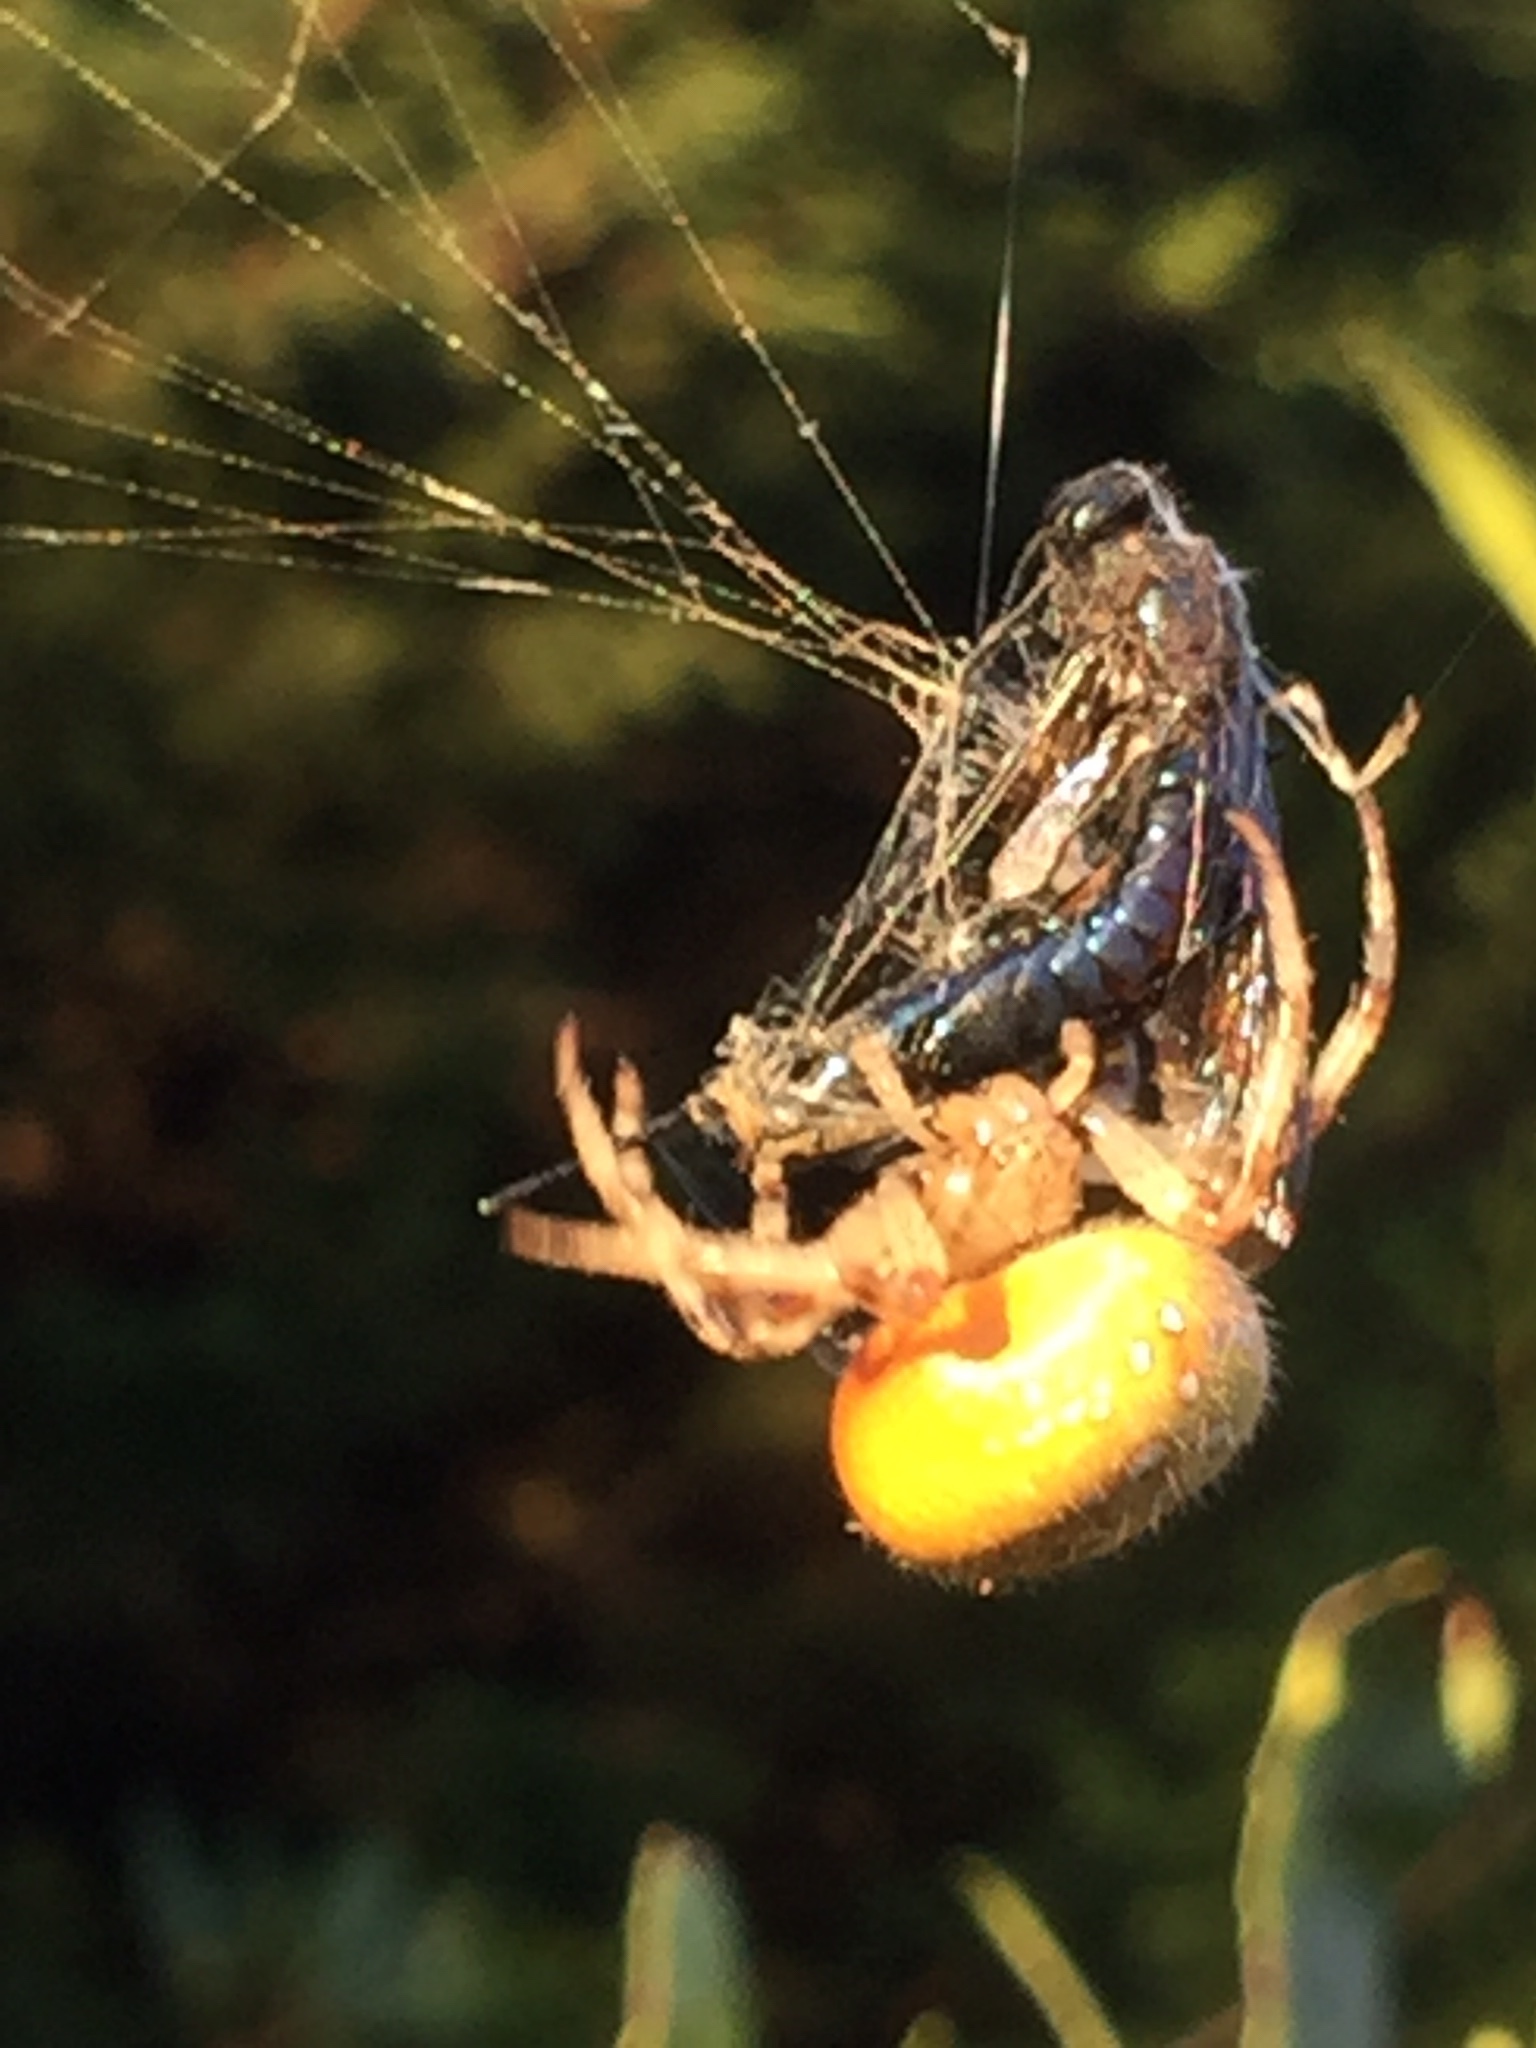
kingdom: Animalia
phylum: Arthropoda
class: Arachnida
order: Araneae
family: Araneidae
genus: Araneus
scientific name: Araneus trifolium
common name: Shamrock orbweaver
